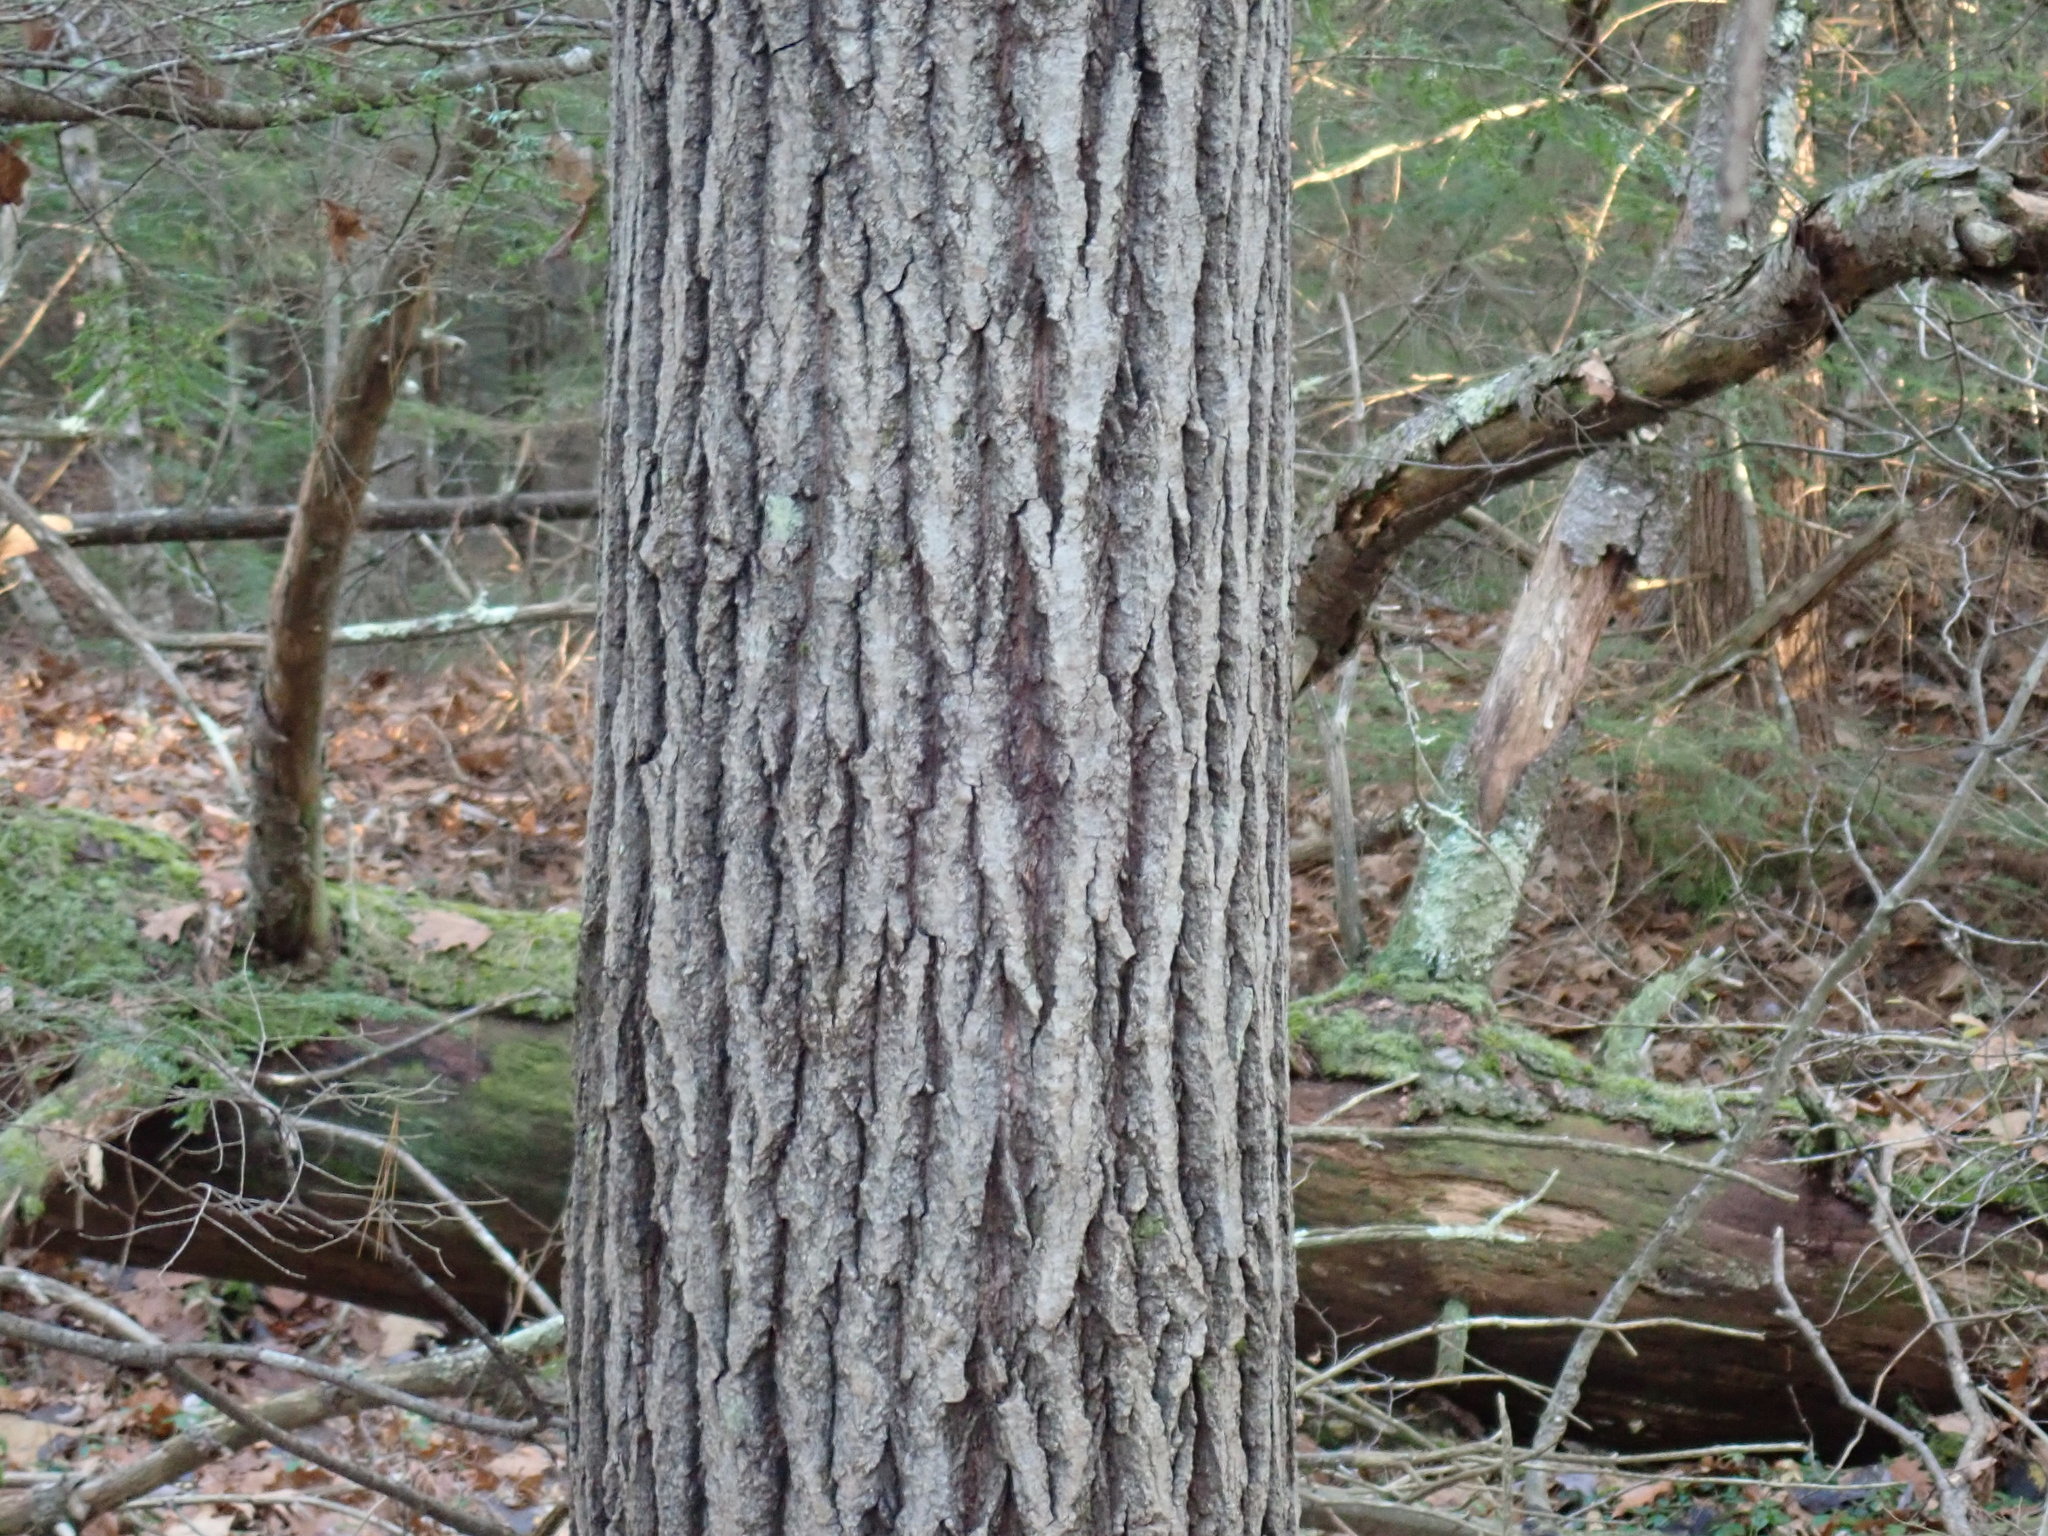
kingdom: Plantae
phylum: Tracheophyta
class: Magnoliopsida
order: Malpighiales
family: Salicaceae
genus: Populus
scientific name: Populus grandidentata
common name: Bigtooth aspen
